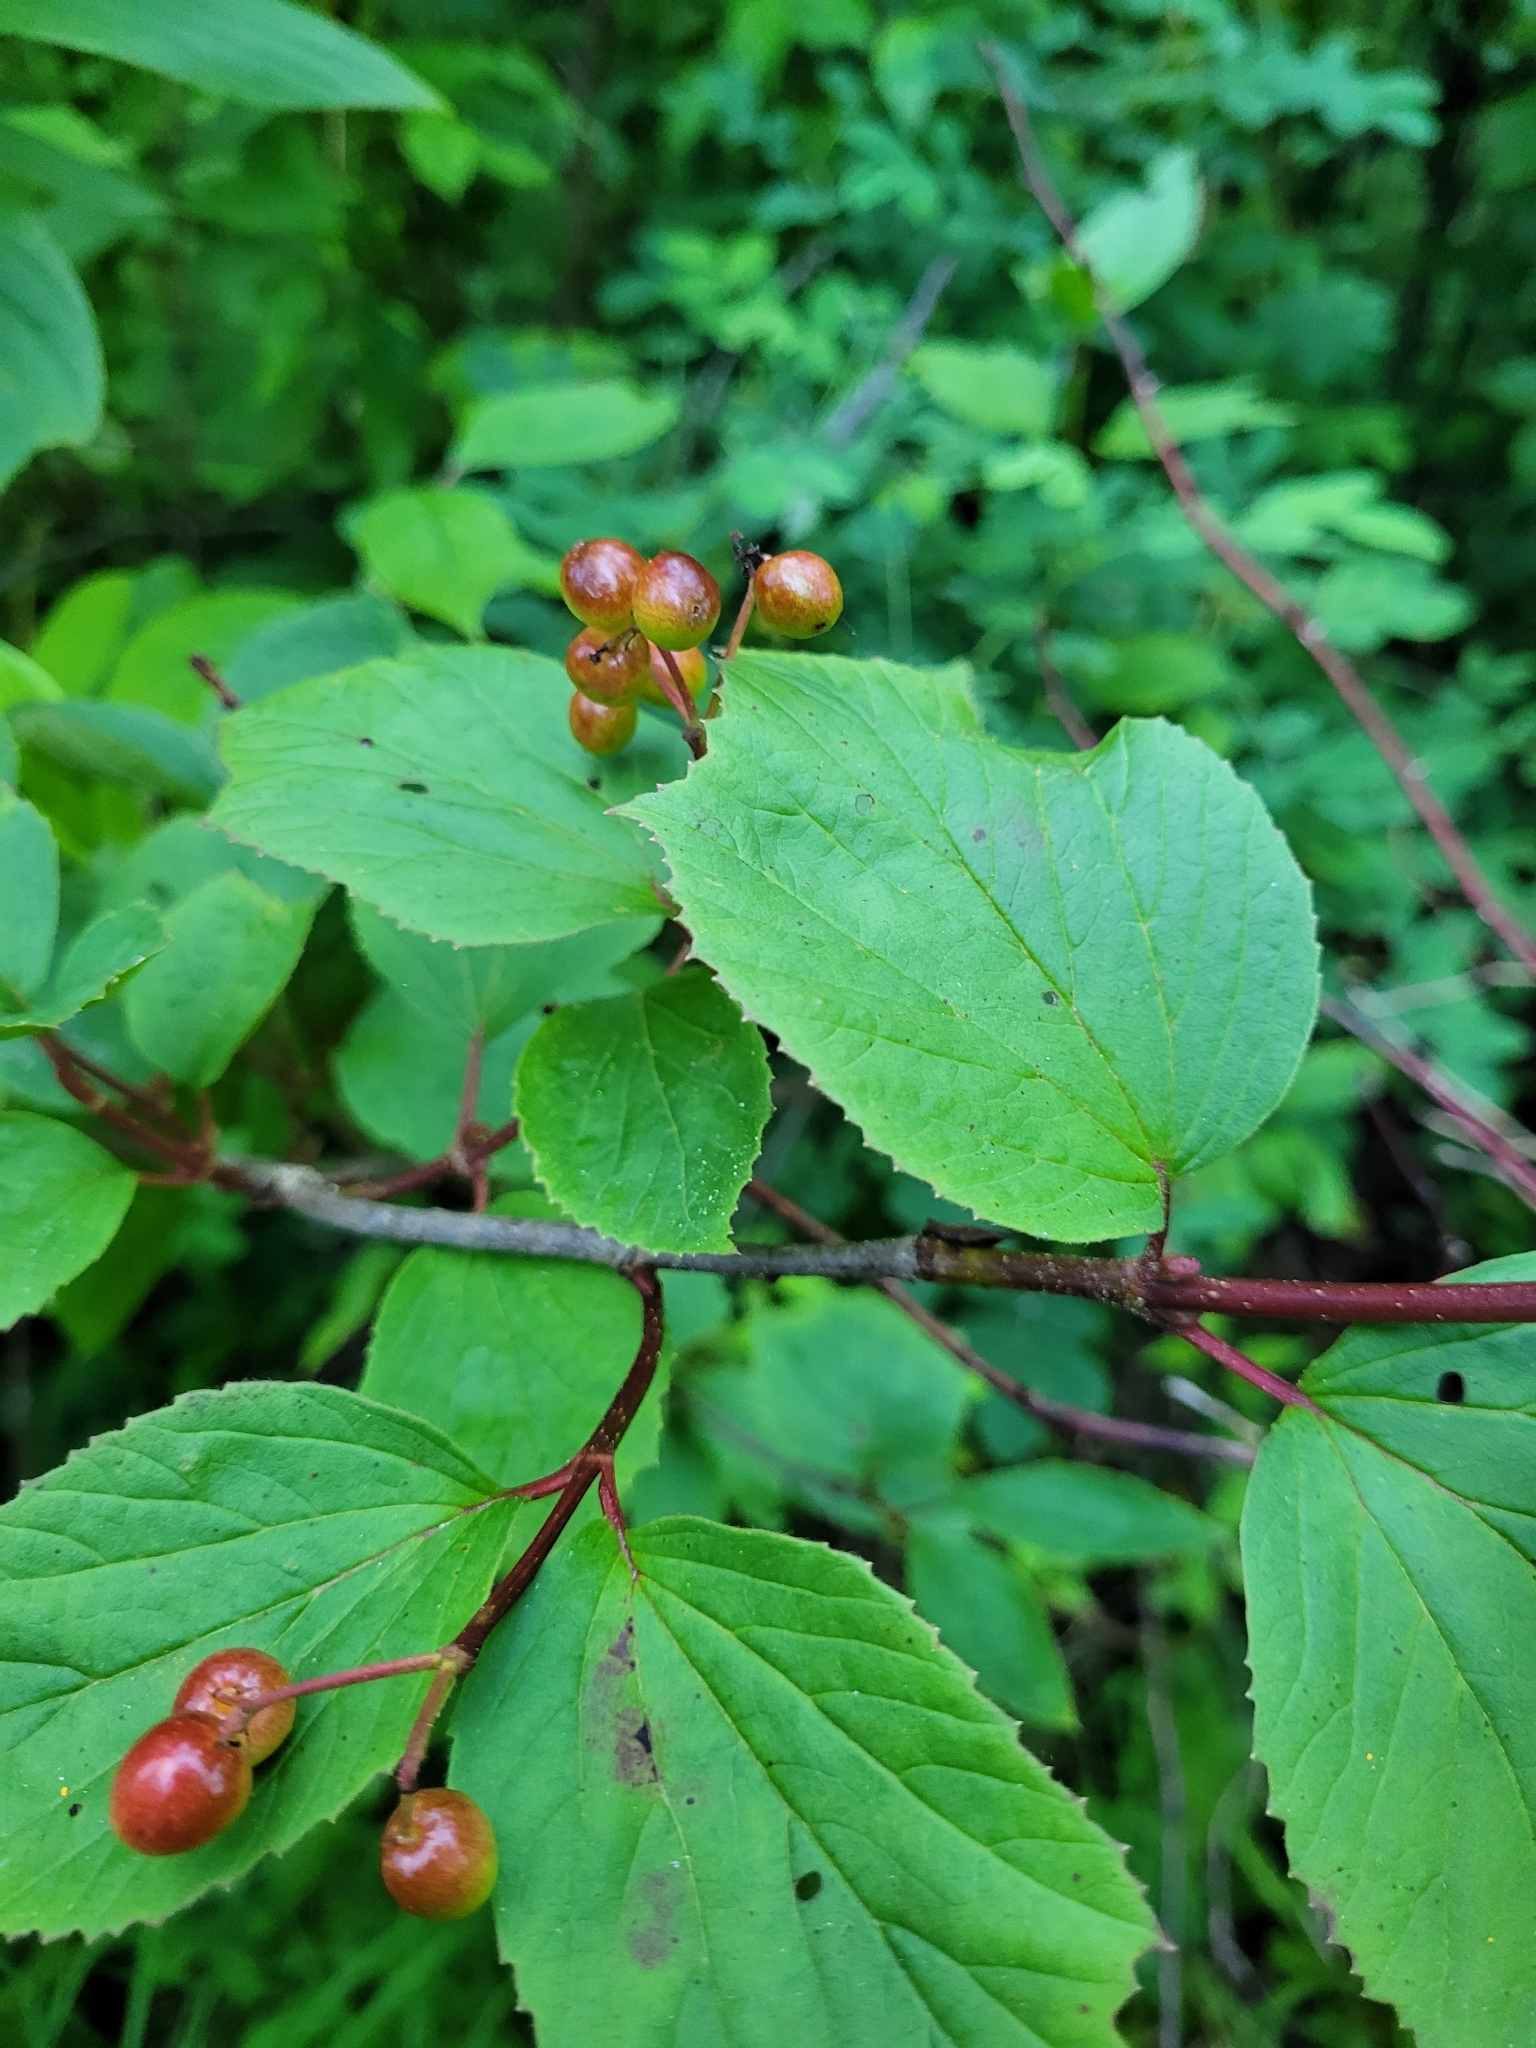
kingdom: Plantae
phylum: Tracheophyta
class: Magnoliopsida
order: Dipsacales
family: Viburnaceae
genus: Viburnum
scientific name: Viburnum edule
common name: Mooseberry
